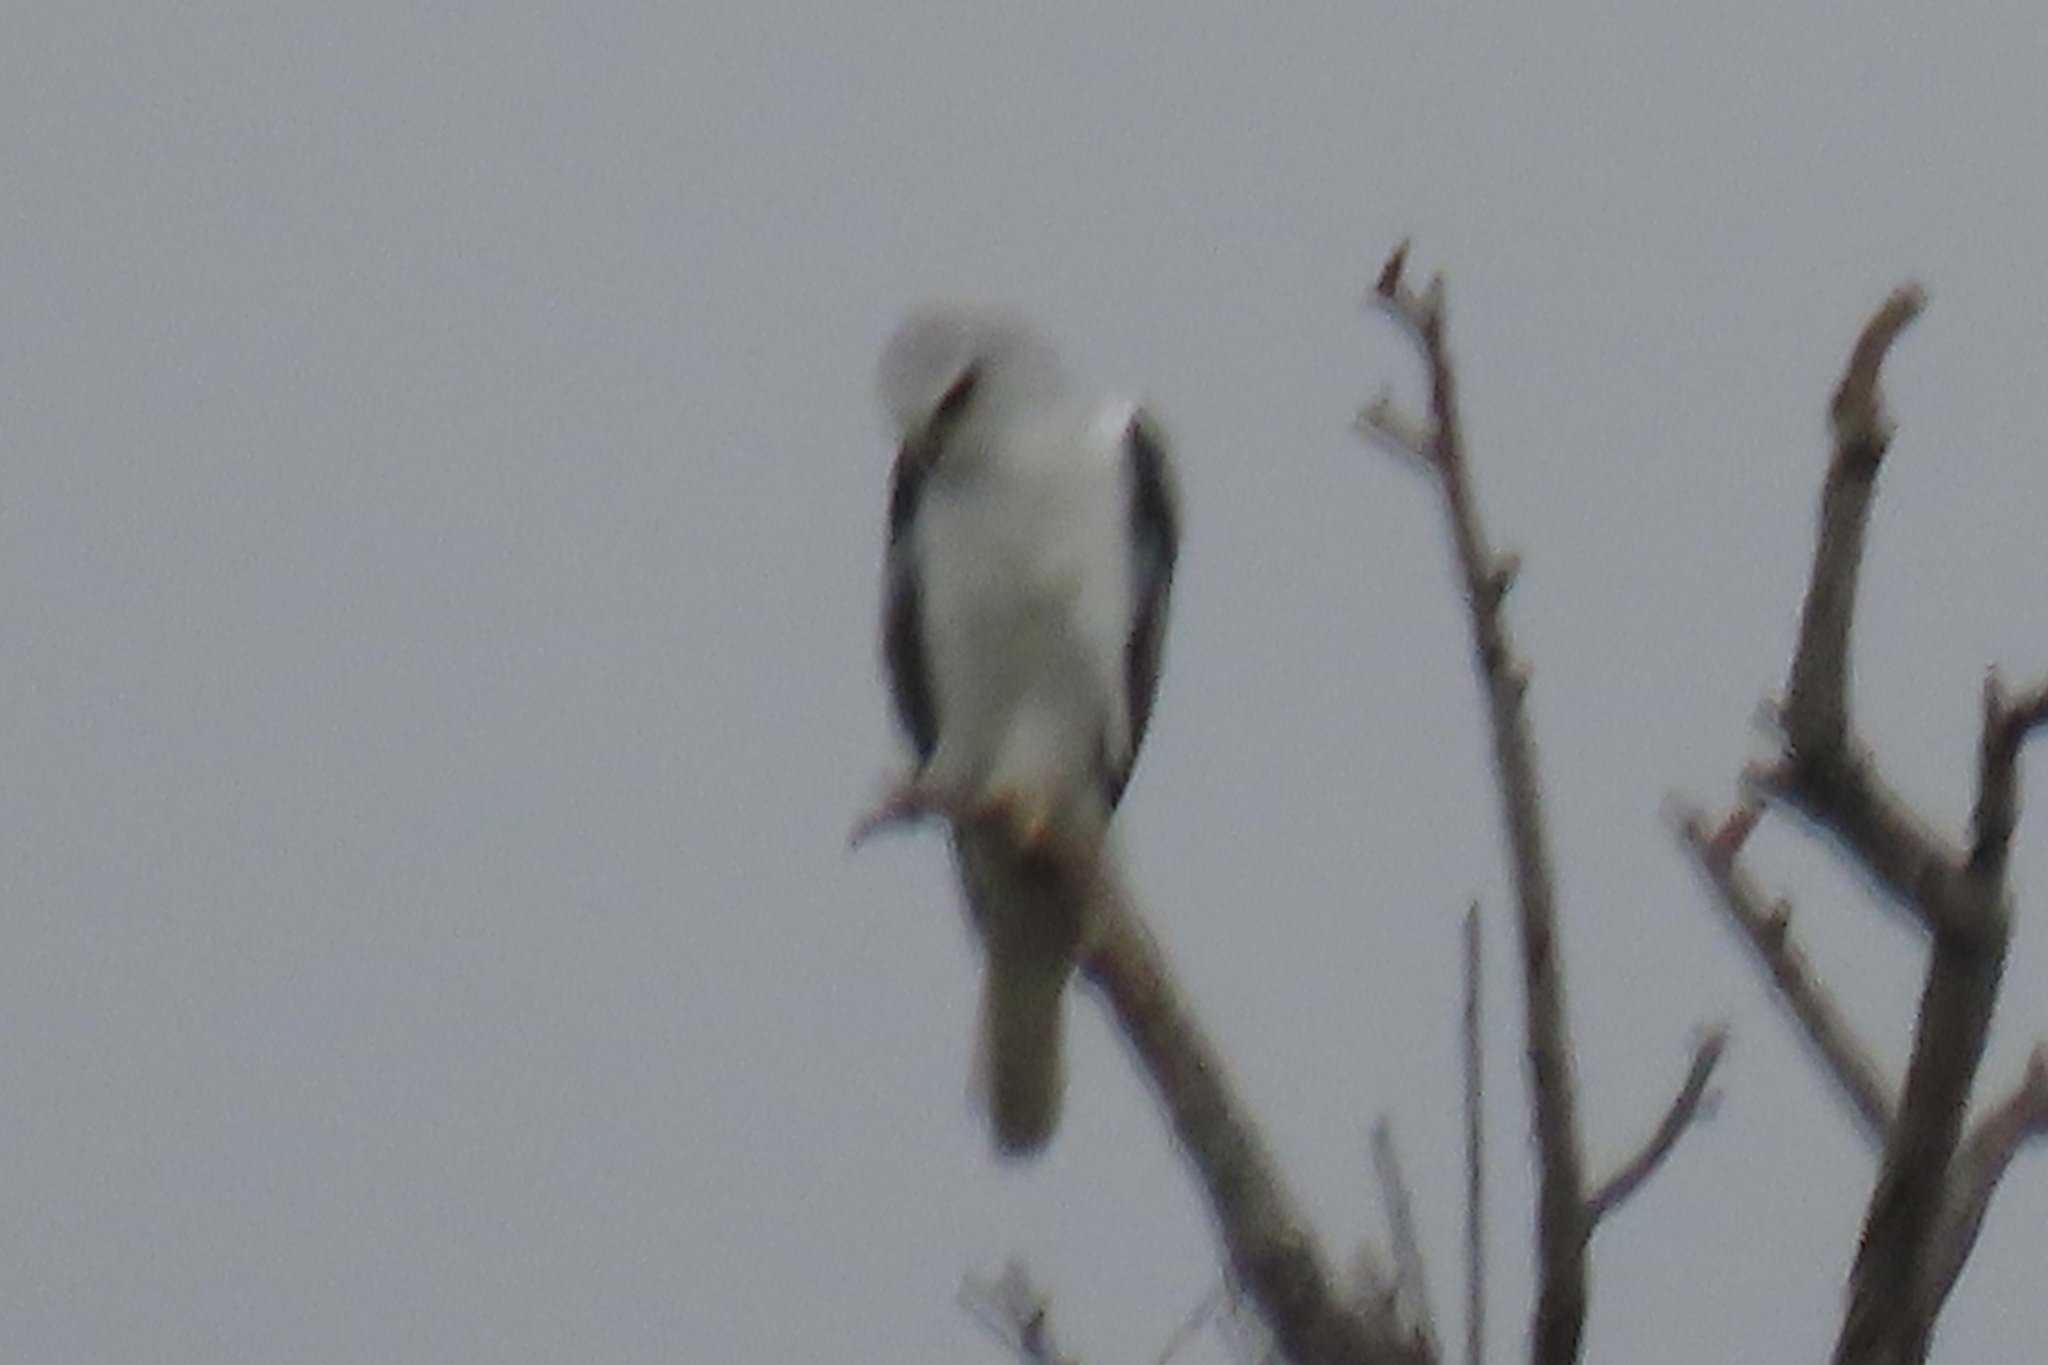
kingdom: Animalia
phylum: Chordata
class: Aves
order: Accipitriformes
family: Accipitridae
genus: Elanus
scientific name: Elanus leucurus
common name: White-tailed kite
